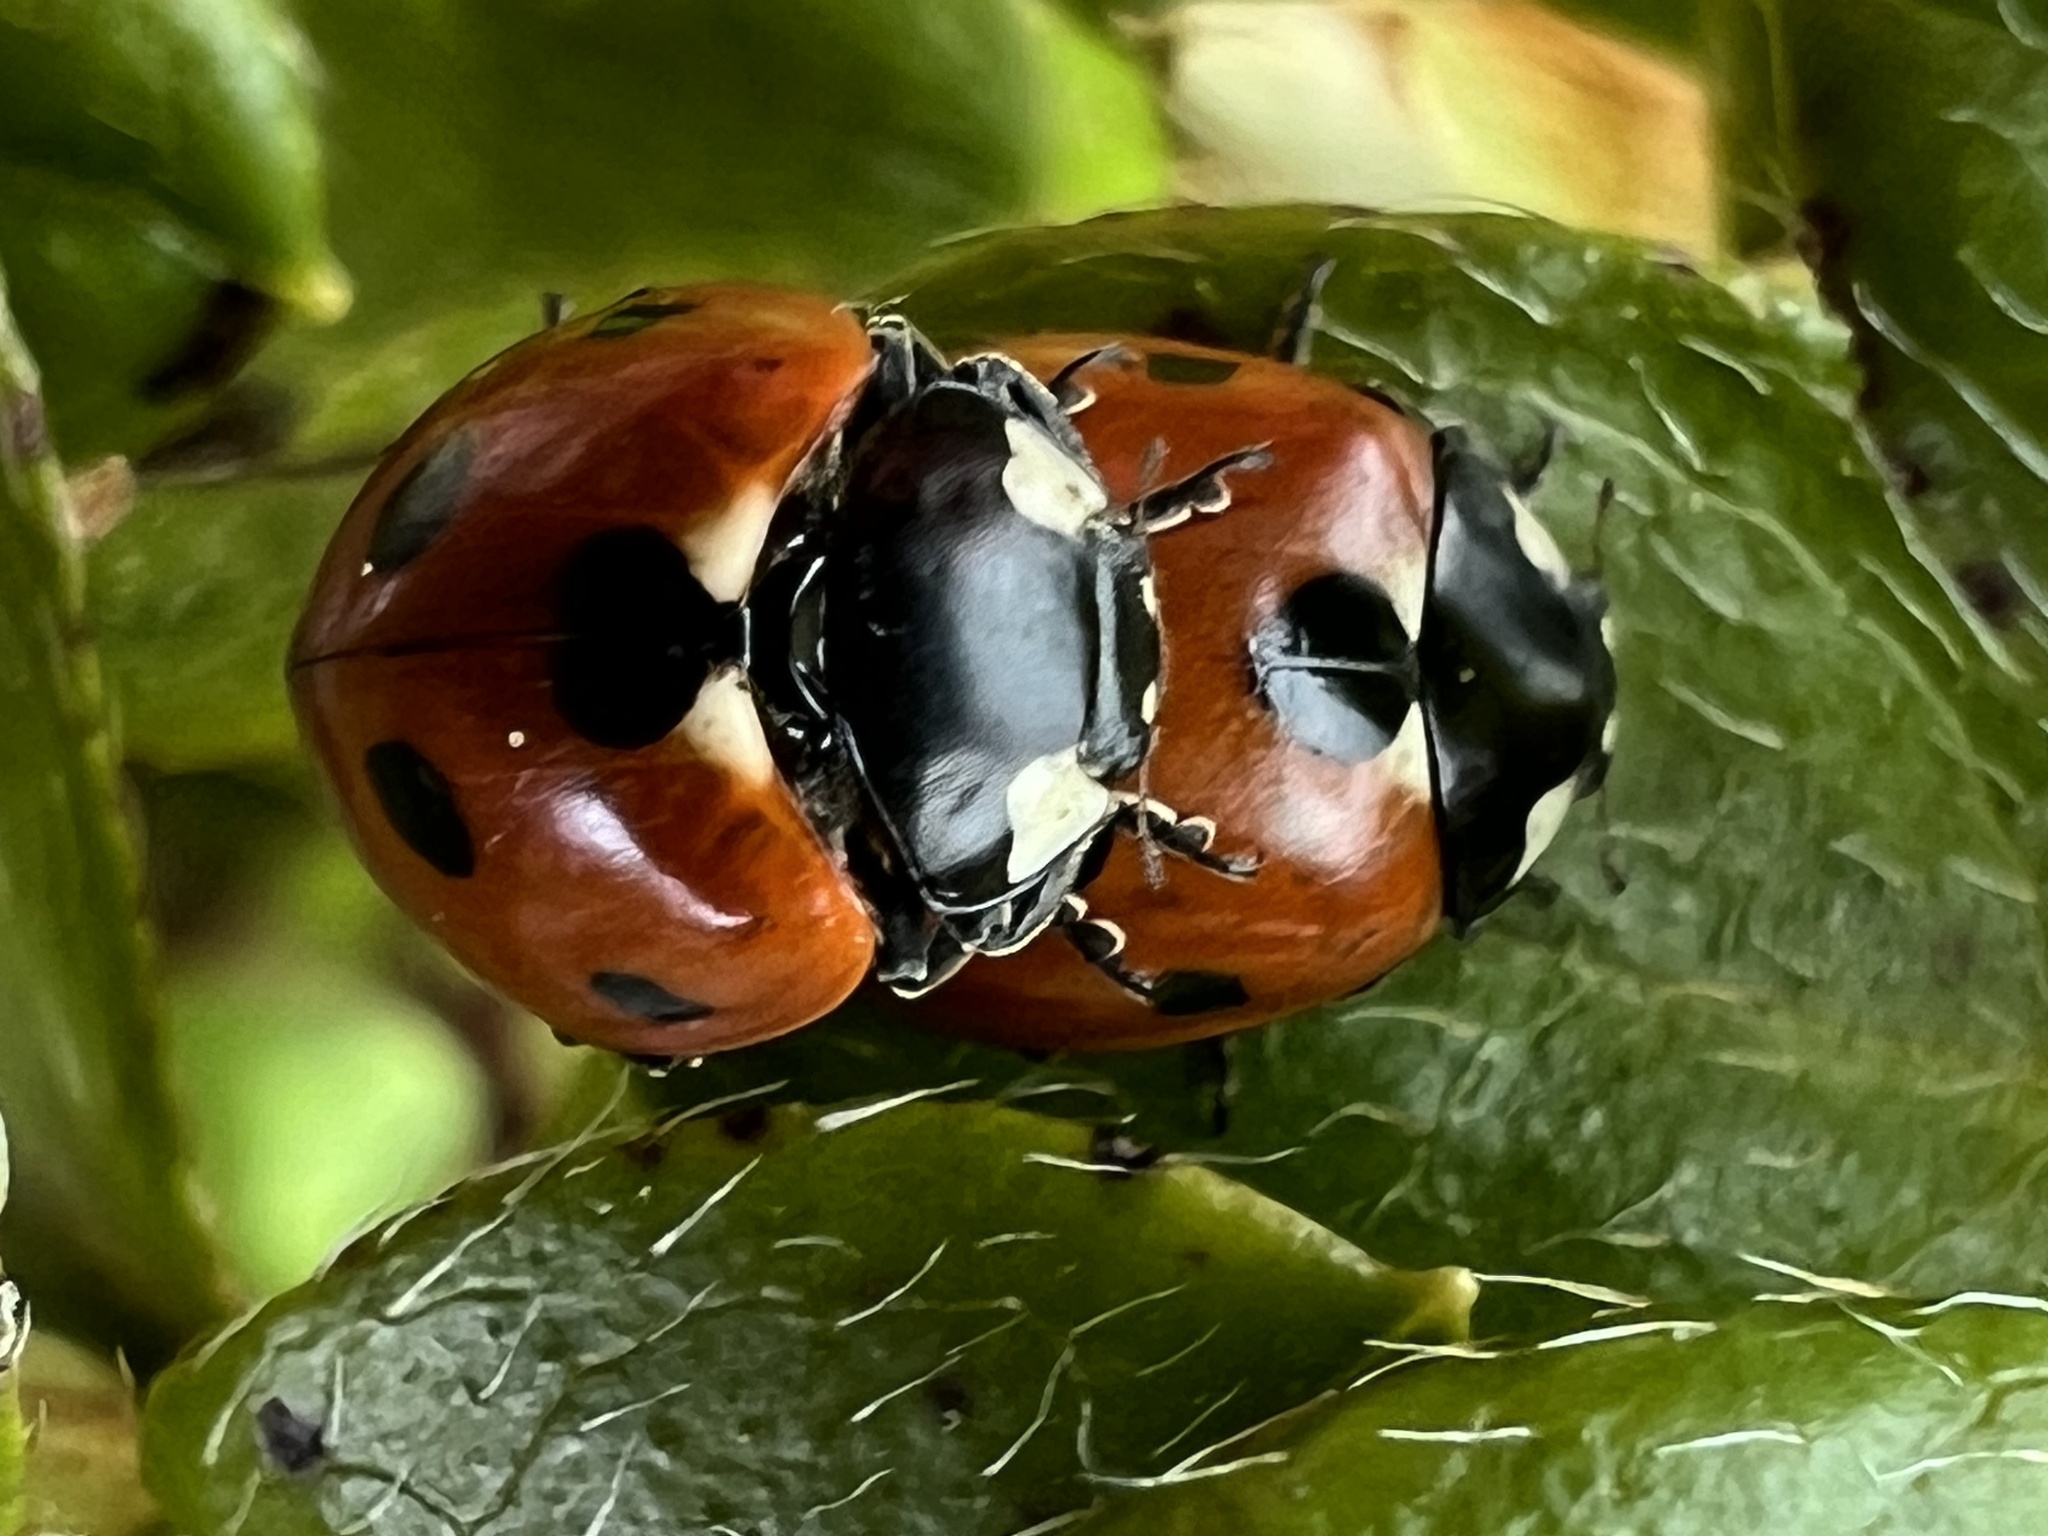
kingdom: Animalia
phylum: Arthropoda
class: Insecta
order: Coleoptera
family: Coccinellidae
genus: Coccinella
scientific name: Coccinella septempunctata
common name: Sevenspotted lady beetle
